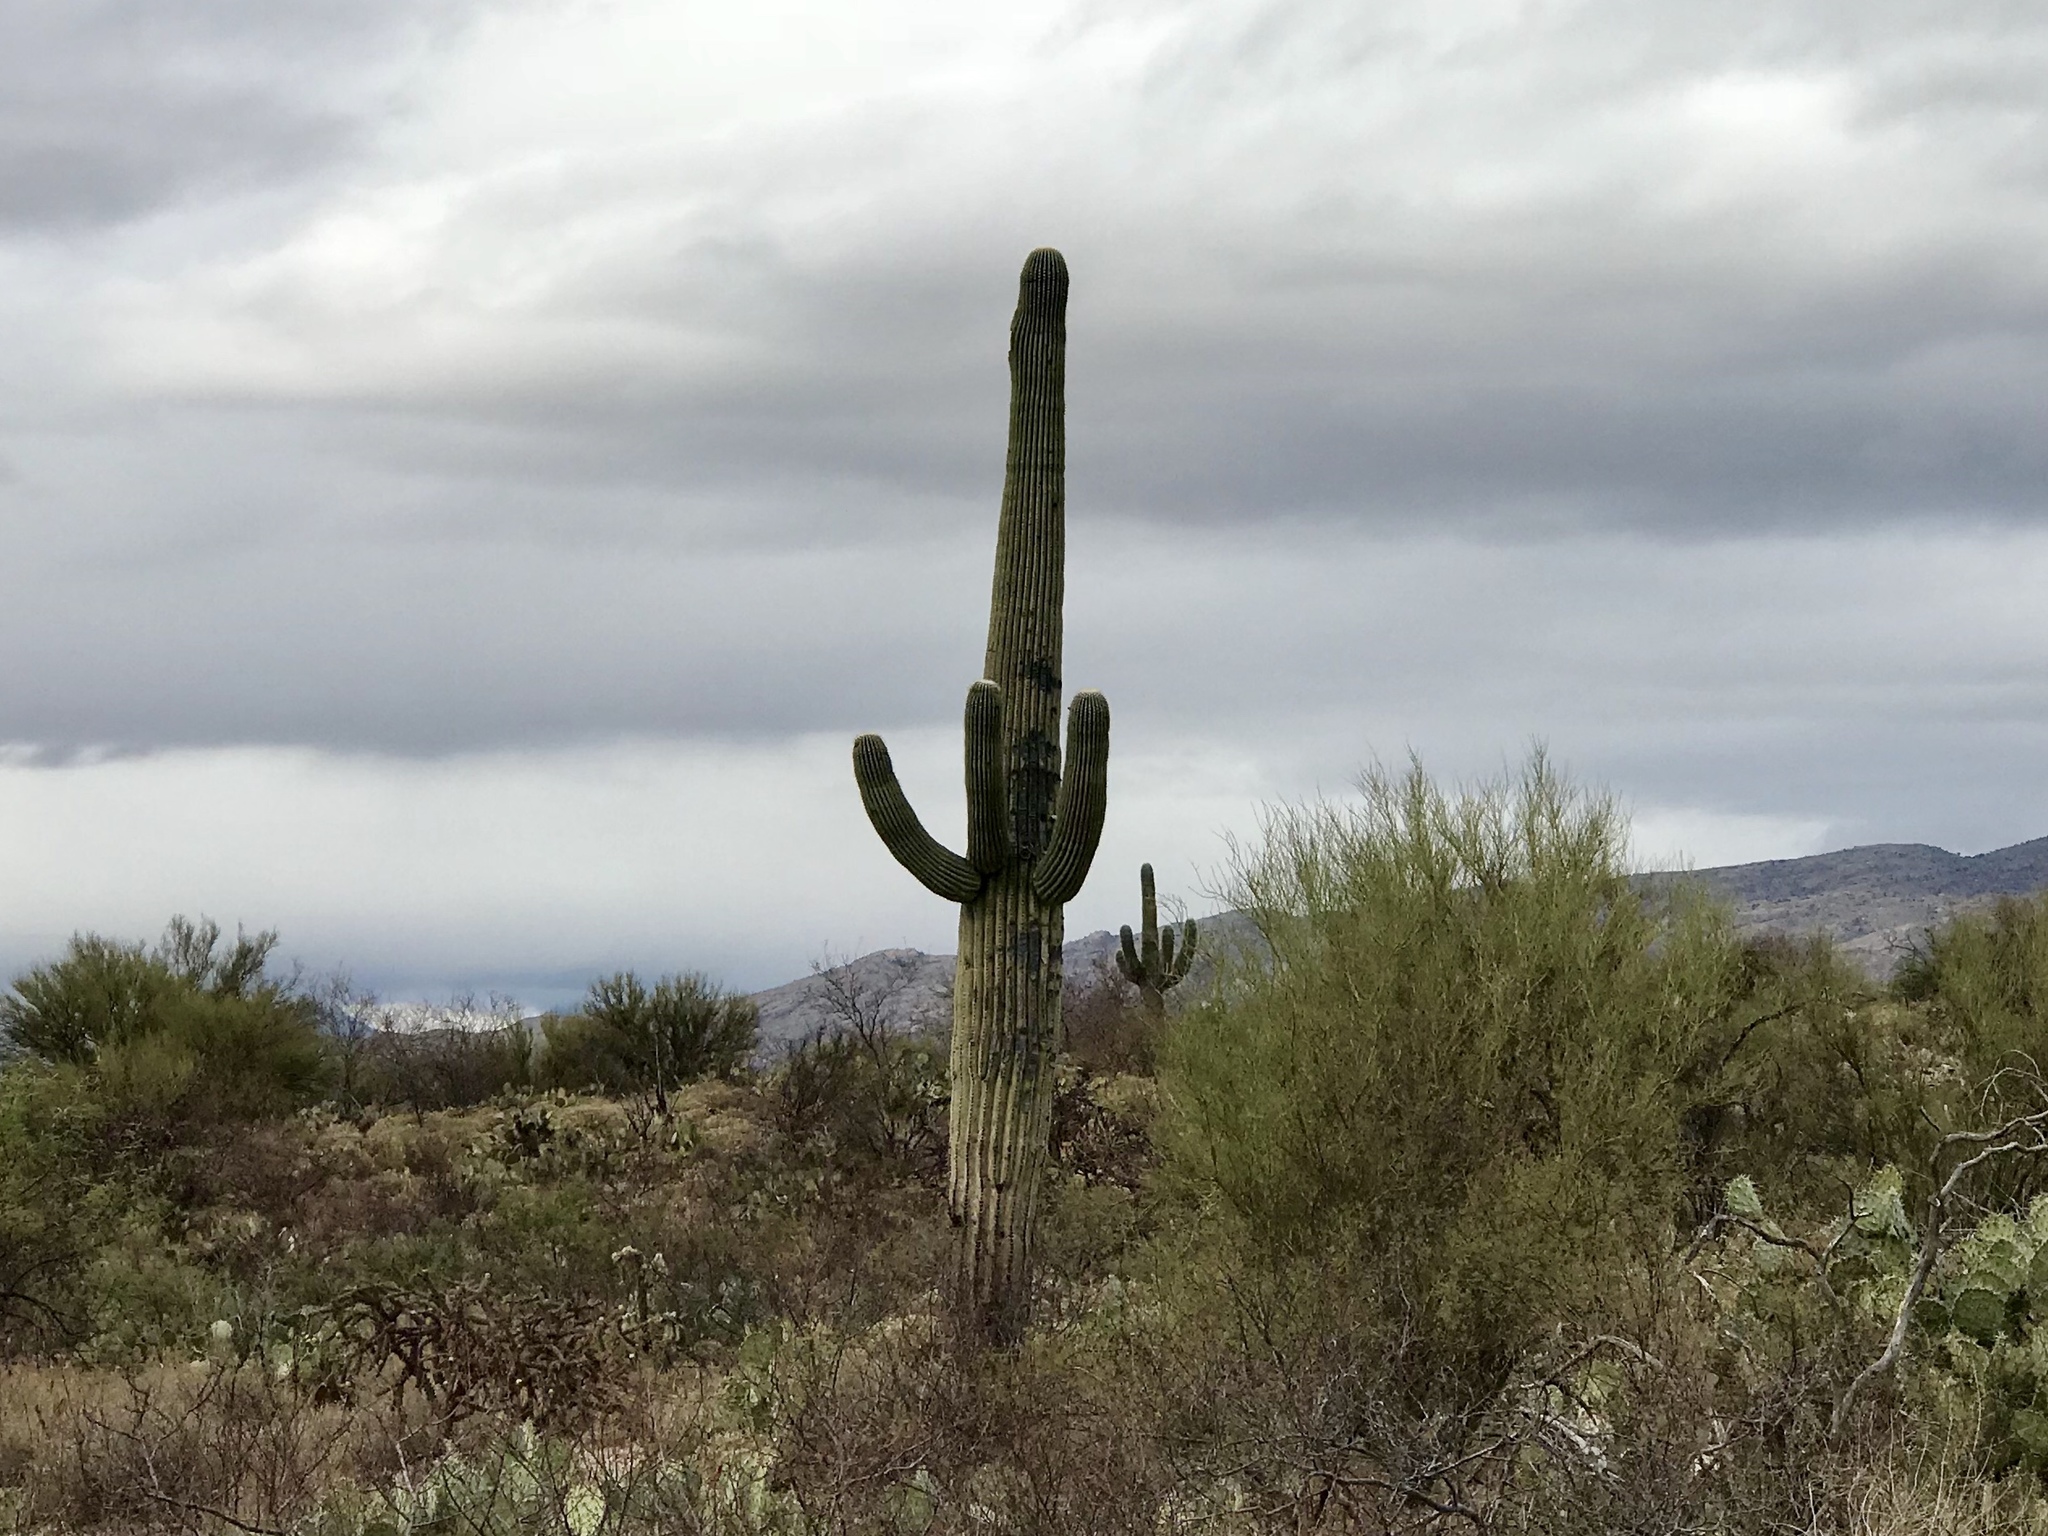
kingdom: Plantae
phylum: Tracheophyta
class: Magnoliopsida
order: Caryophyllales
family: Cactaceae
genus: Carnegiea
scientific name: Carnegiea gigantea
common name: Saguaro
